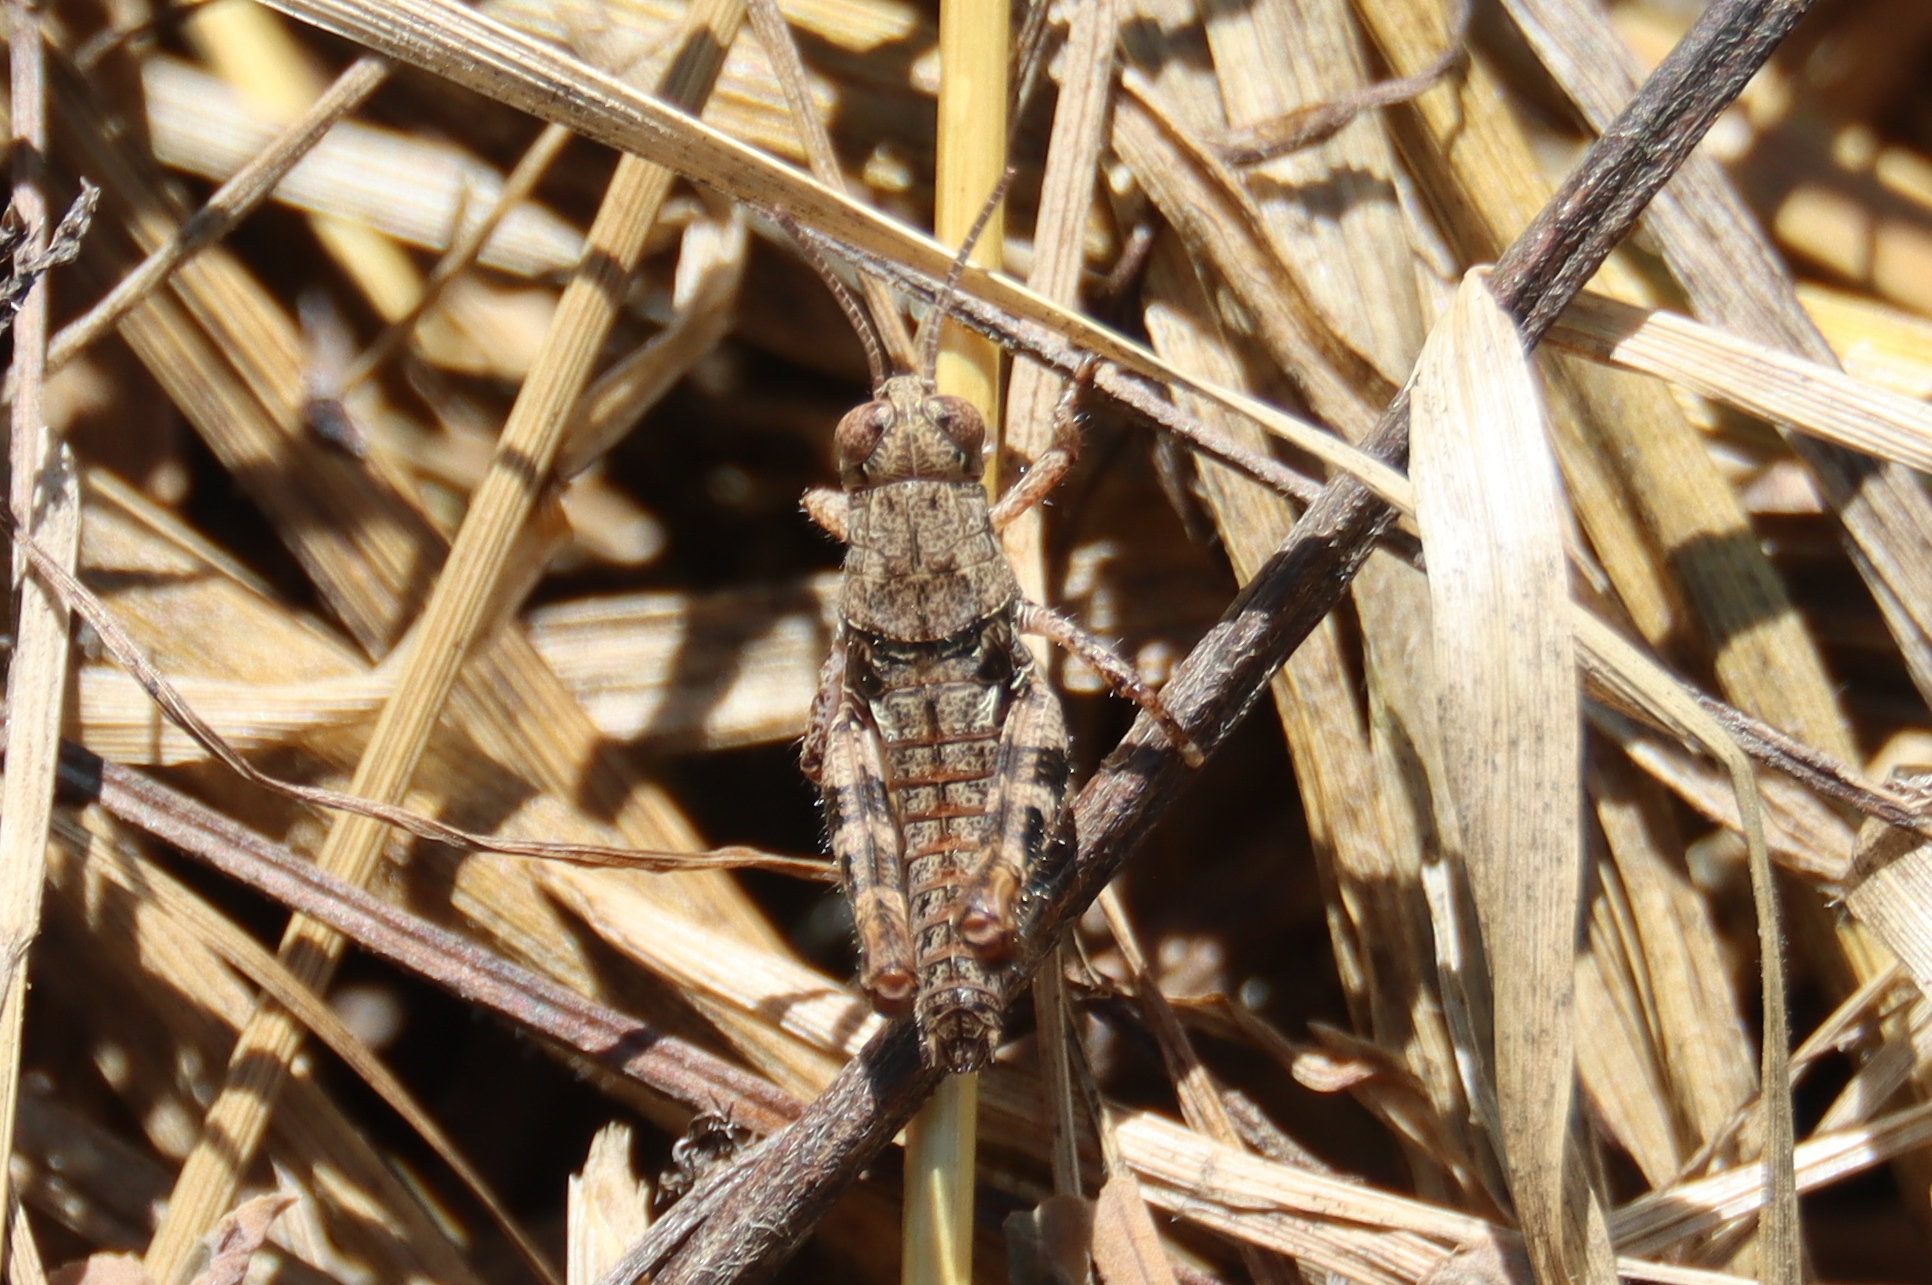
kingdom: Animalia
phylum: Arthropoda
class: Insecta
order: Orthoptera
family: Acrididae
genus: Calliptamus
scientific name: Calliptamus italicus
